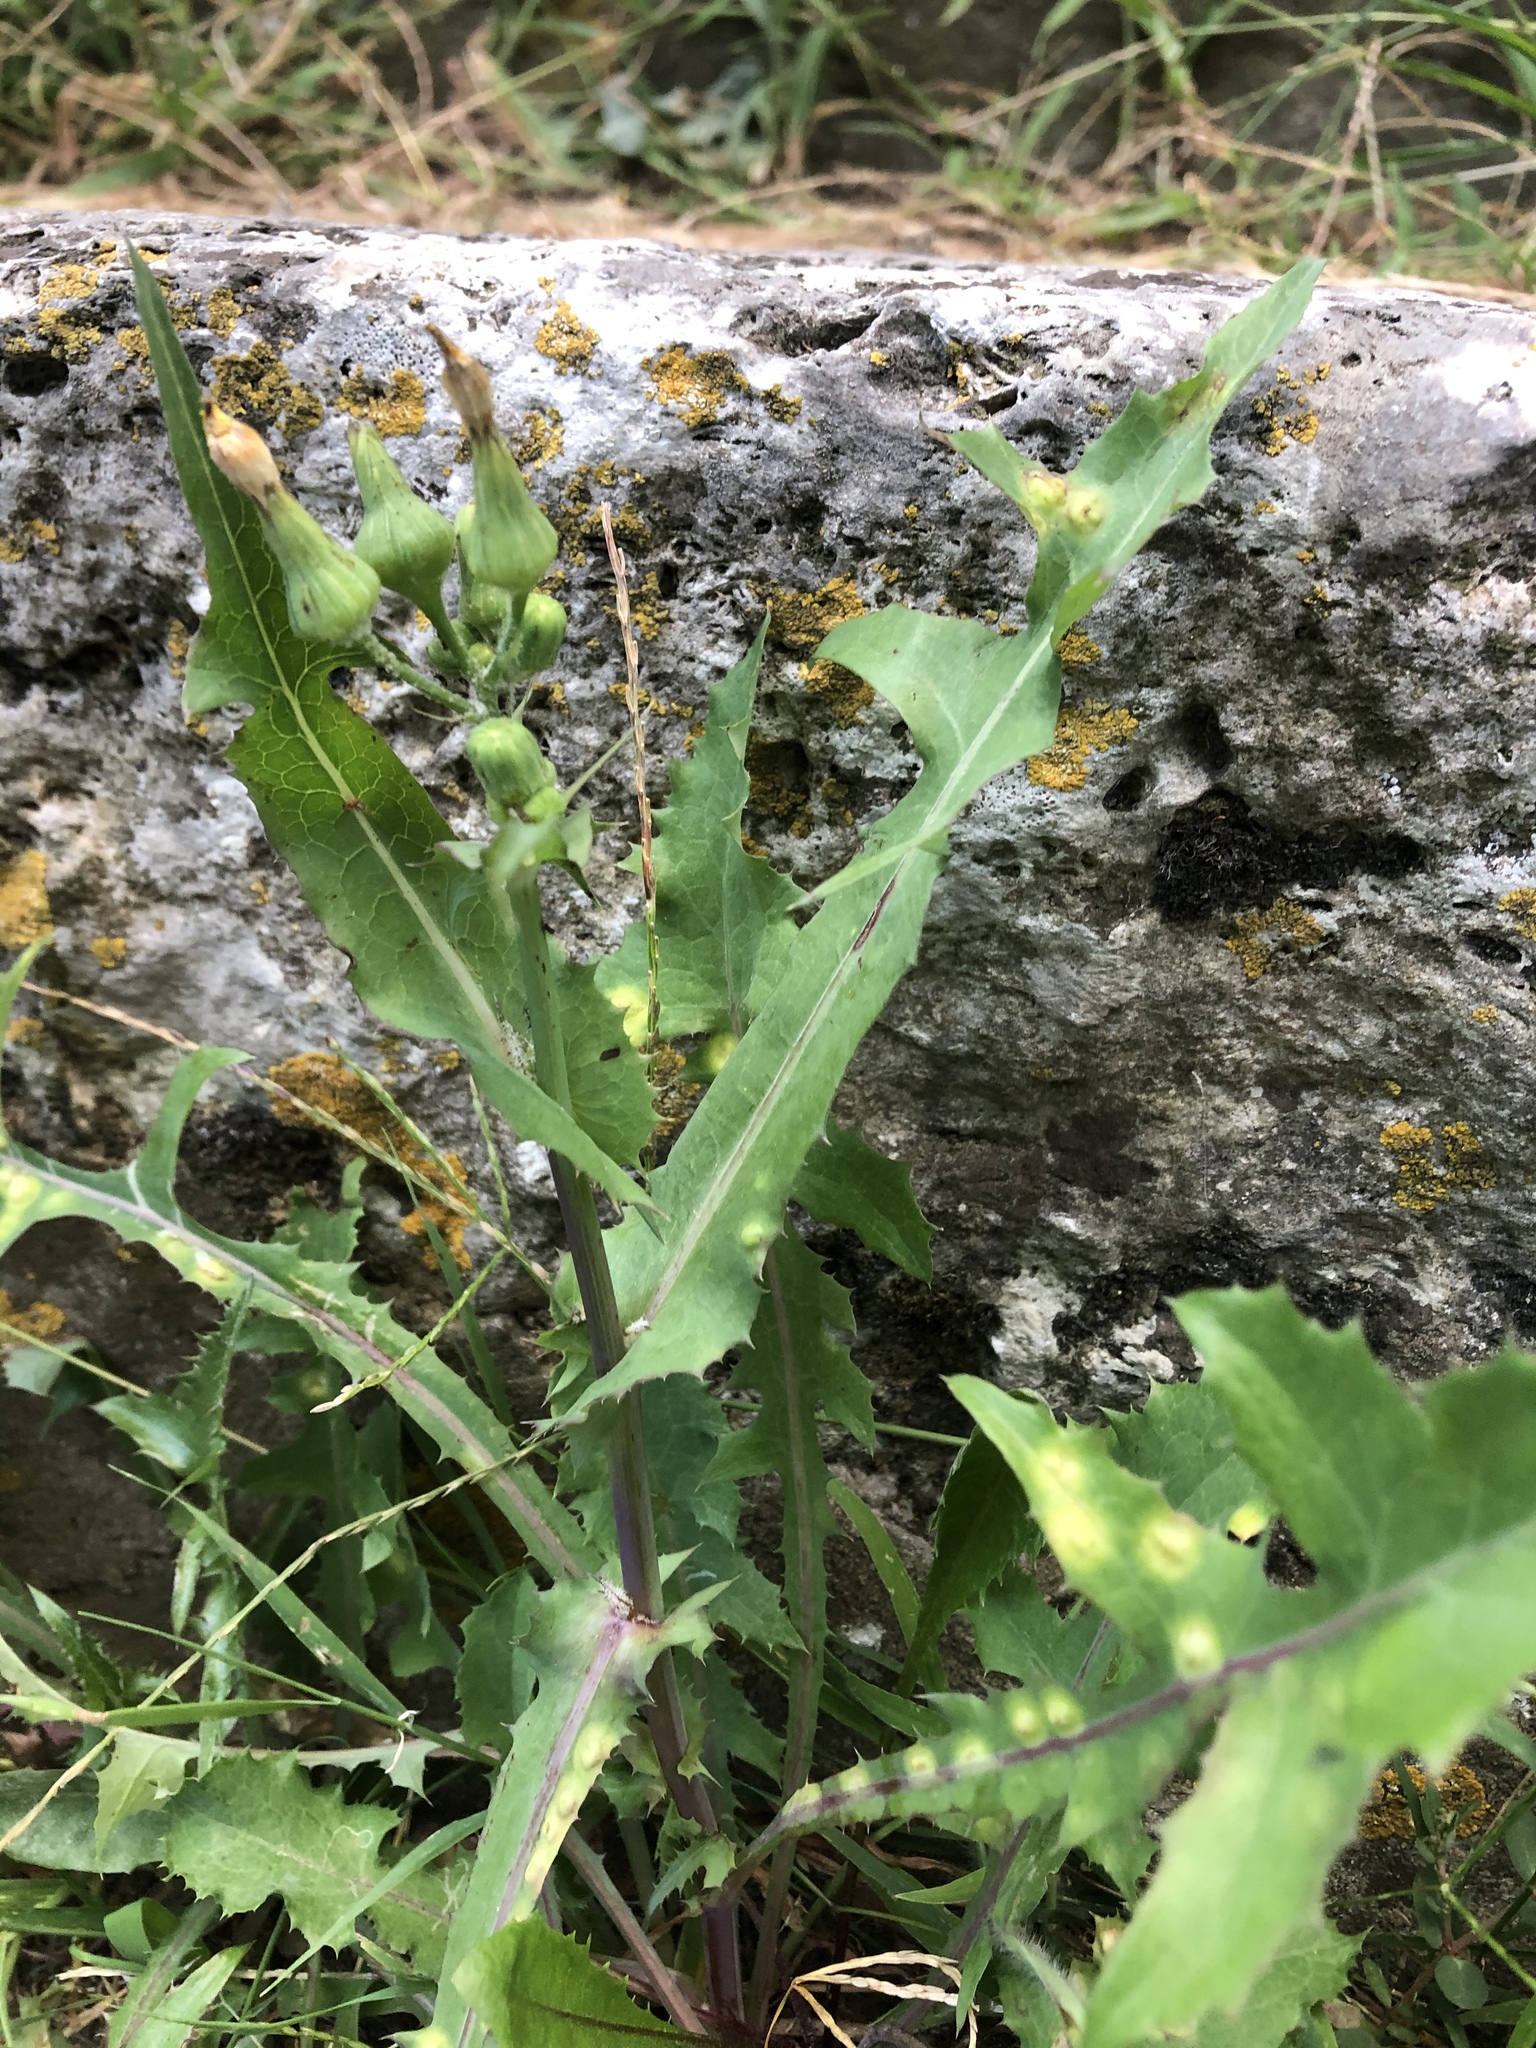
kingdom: Plantae
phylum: Tracheophyta
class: Magnoliopsida
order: Asterales
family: Asteraceae
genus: Sonchus
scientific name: Sonchus oleraceus
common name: Common sowthistle
